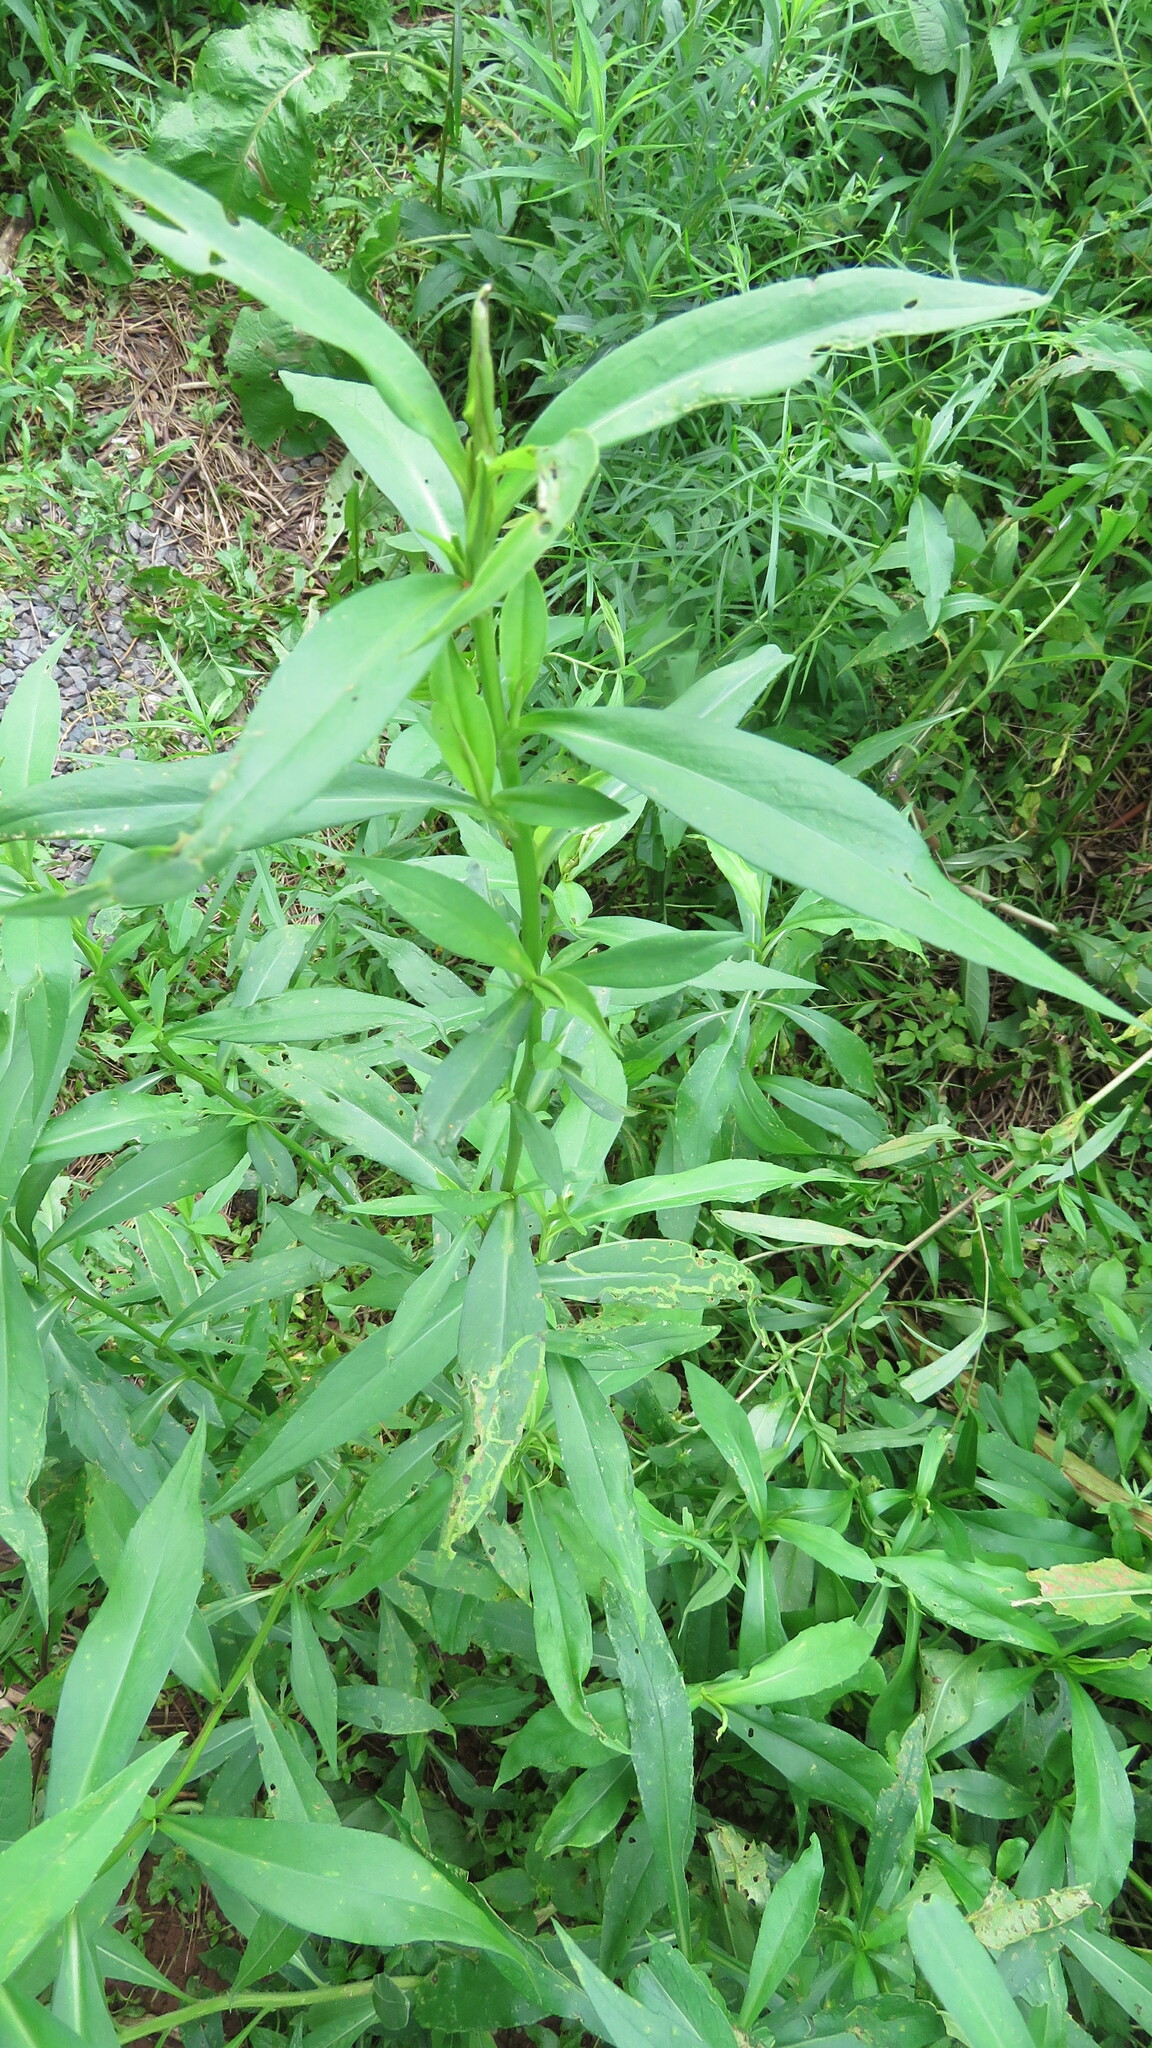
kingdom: Animalia
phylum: Arthropoda
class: Insecta
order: Diptera
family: Agromyzidae
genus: Ophiomyia
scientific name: Ophiomyia parda
